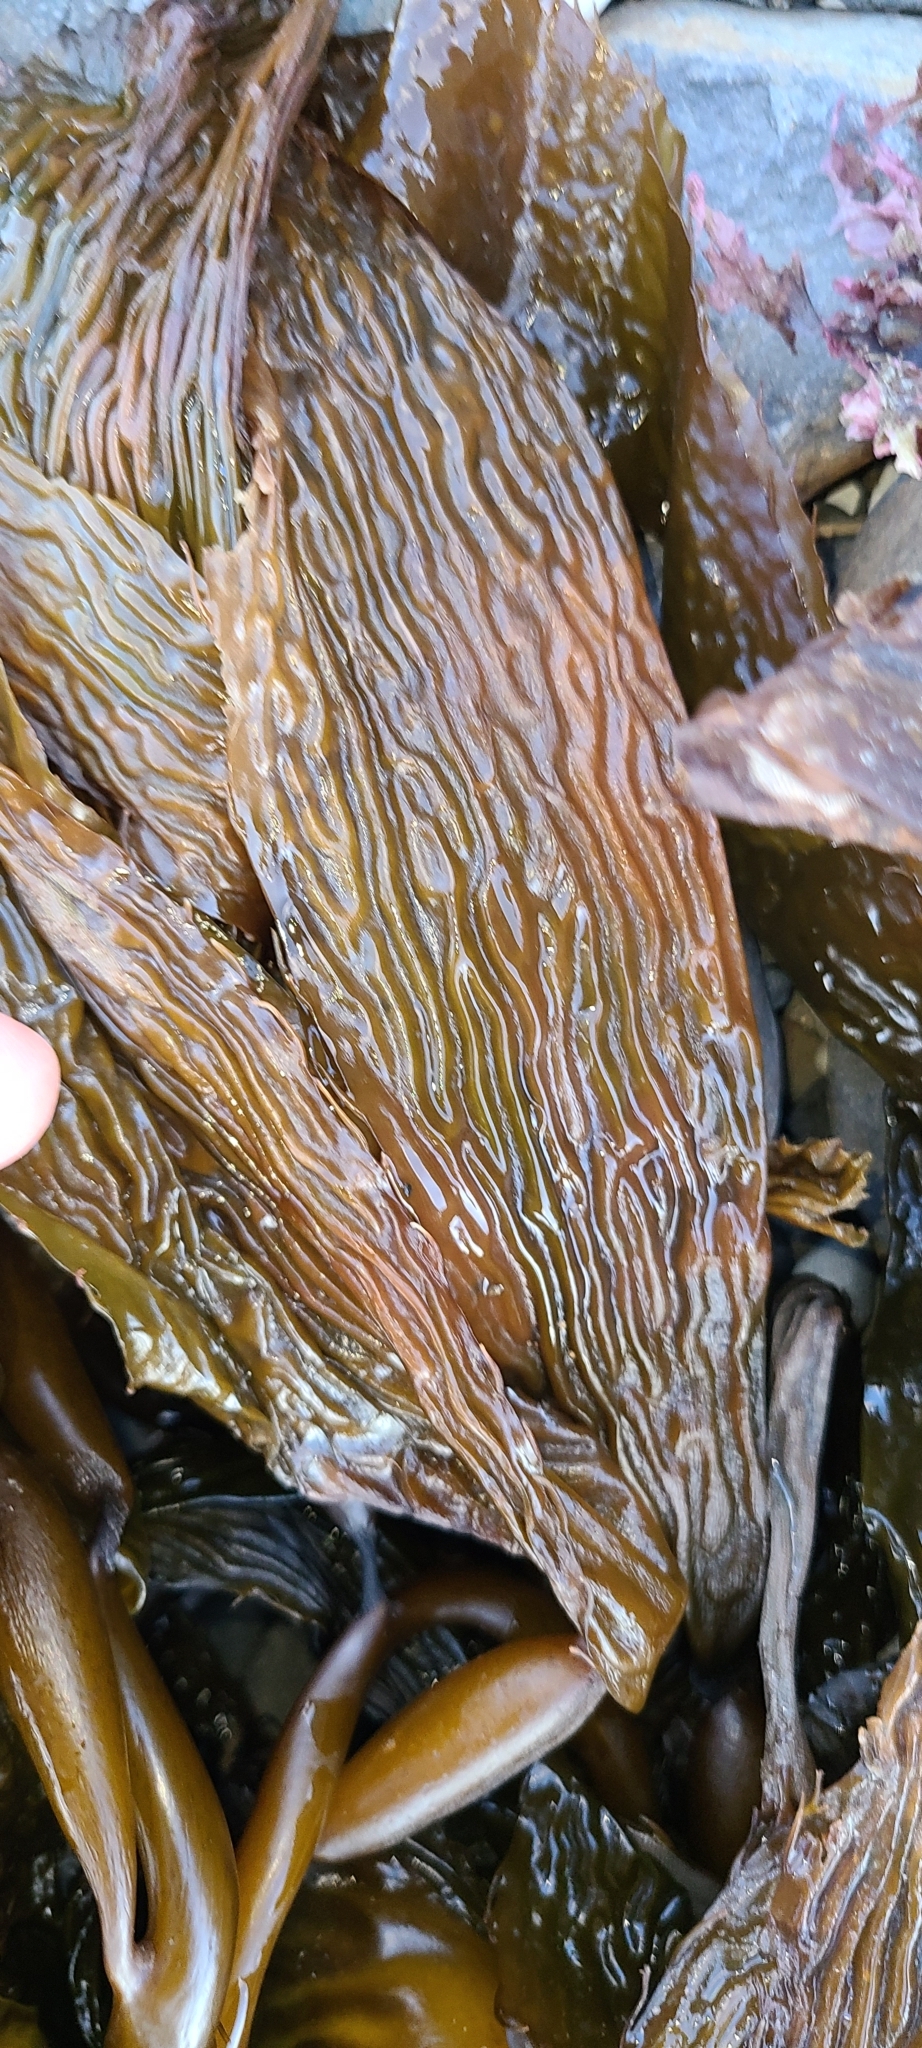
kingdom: Chromista
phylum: Ochrophyta
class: Phaeophyceae
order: Laminariales
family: Laminariaceae
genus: Macrocystis
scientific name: Macrocystis pyrifera
